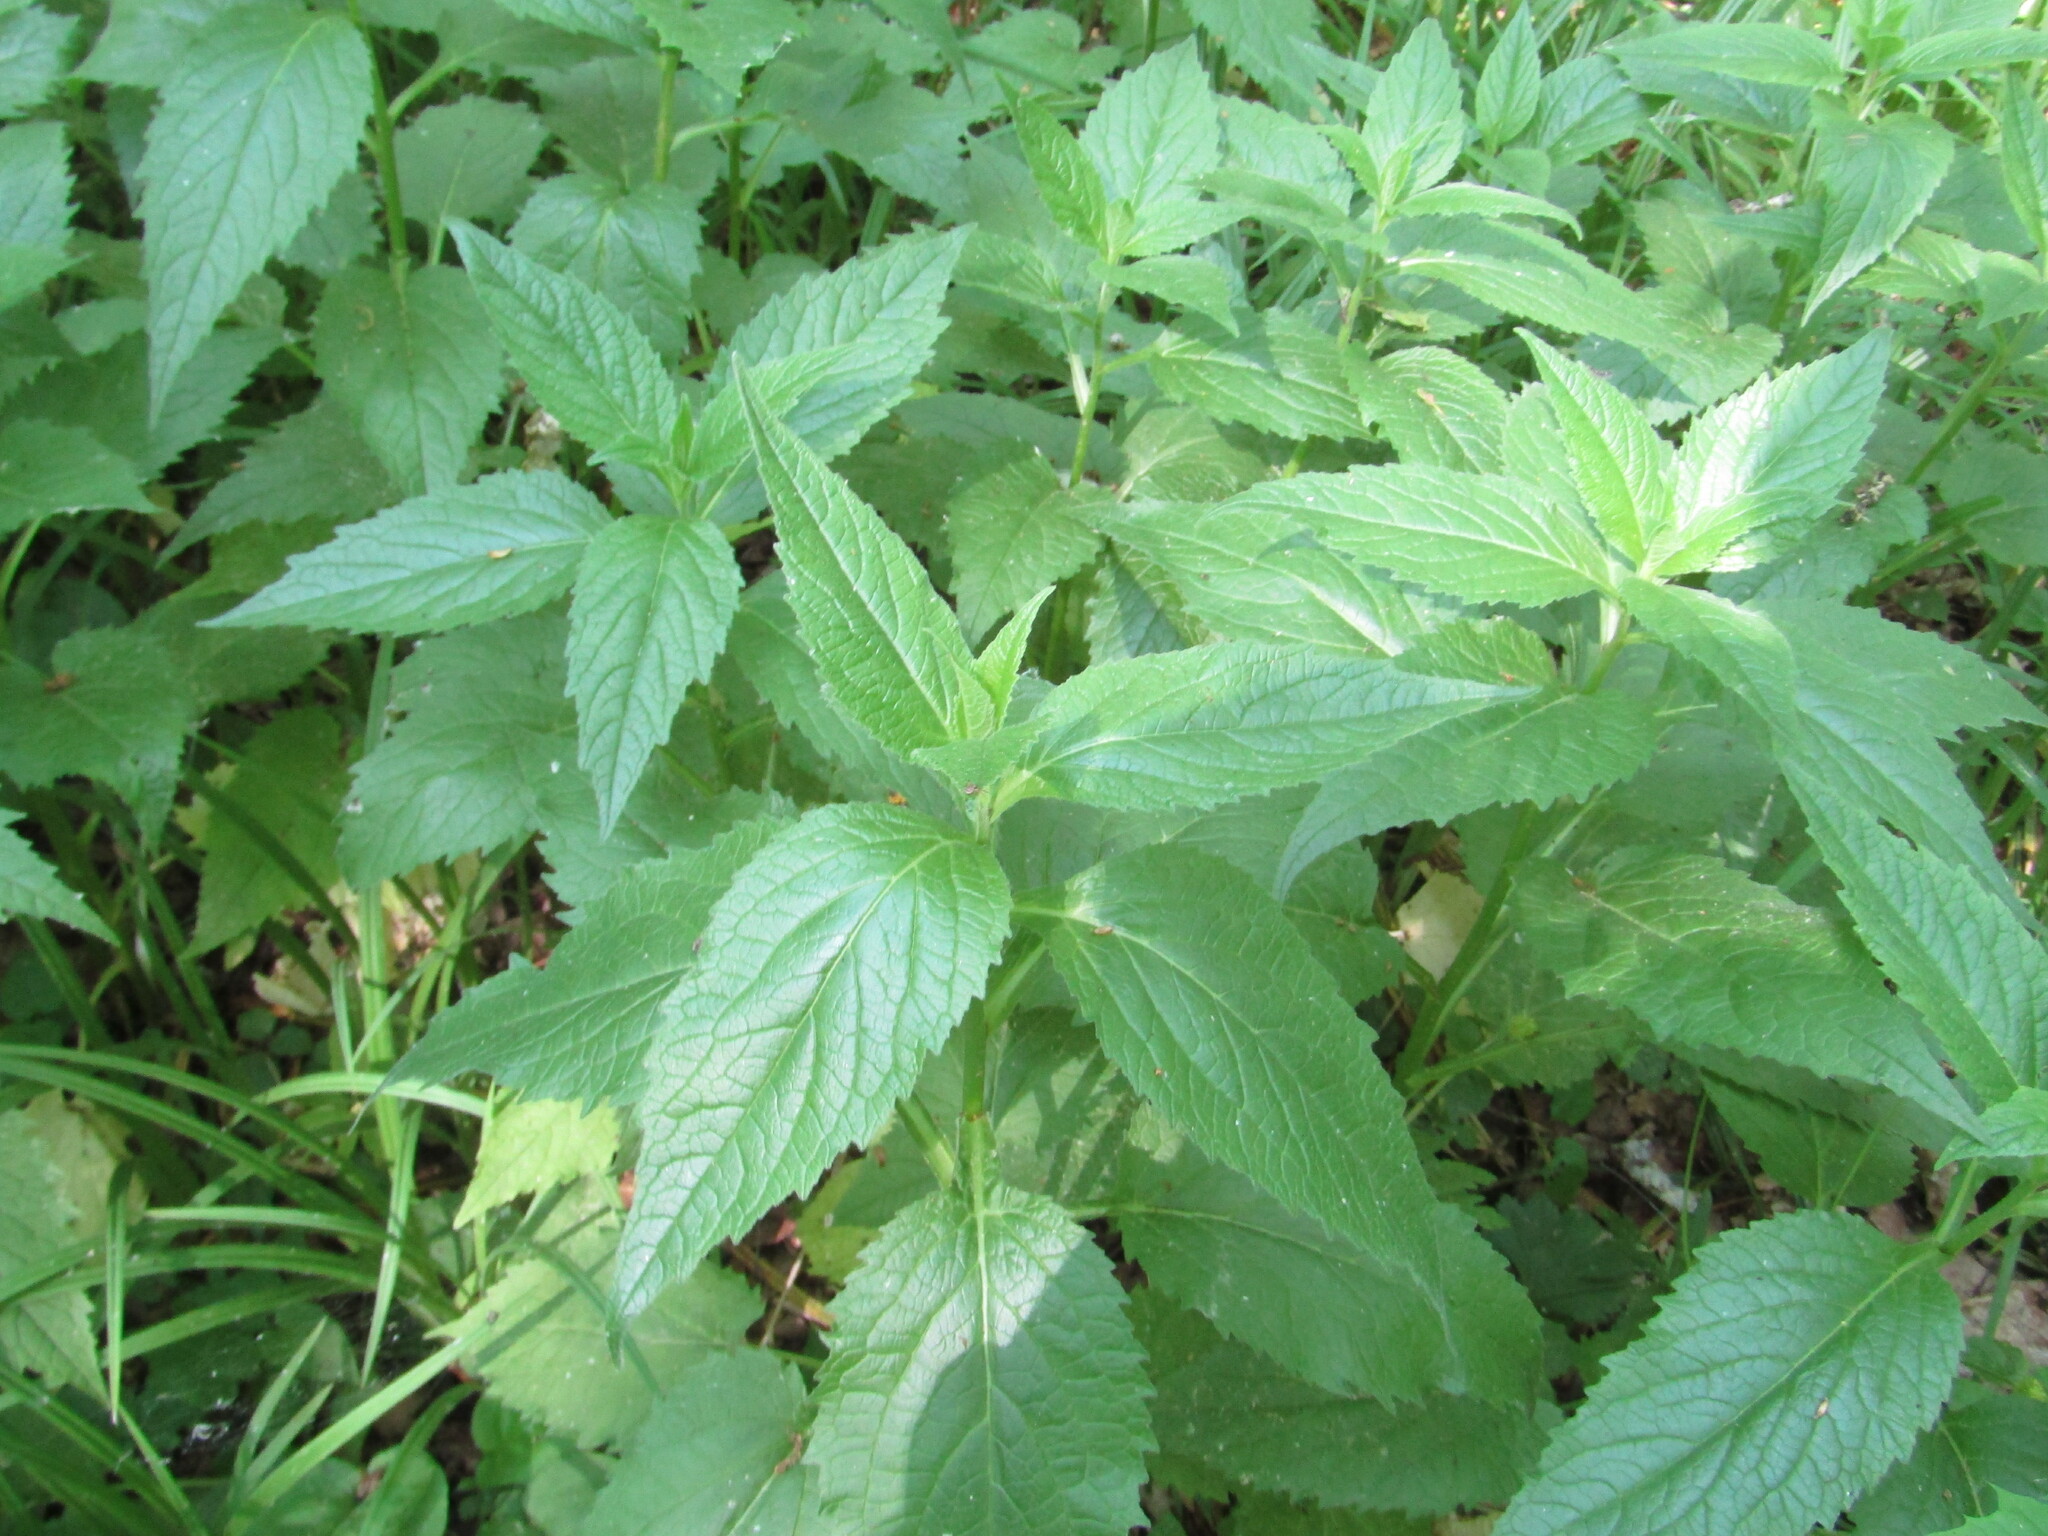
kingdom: Plantae
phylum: Tracheophyta
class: Magnoliopsida
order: Asterales
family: Campanulaceae
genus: Campanula
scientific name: Campanula latifolia
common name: Giant bellflower
